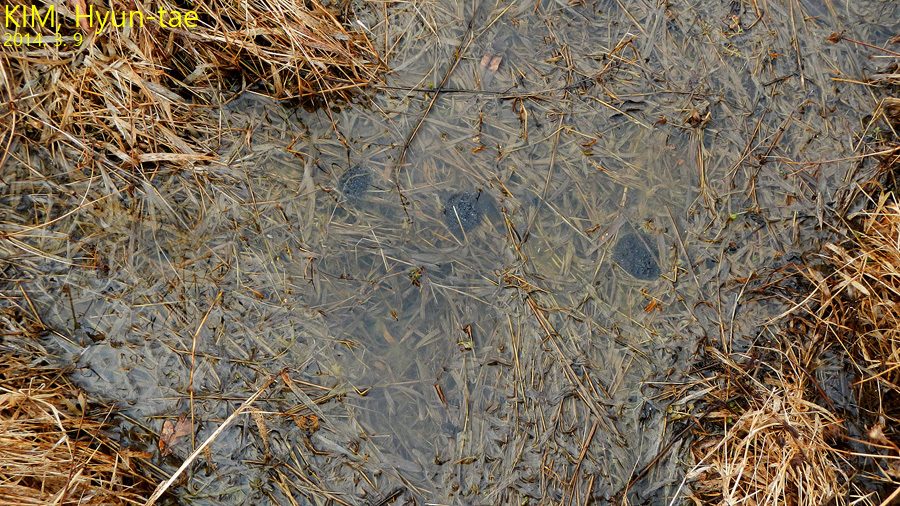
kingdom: Animalia
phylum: Chordata
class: Amphibia
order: Anura
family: Ranidae
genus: Rana
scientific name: Rana coreana
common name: Korean brown frog
